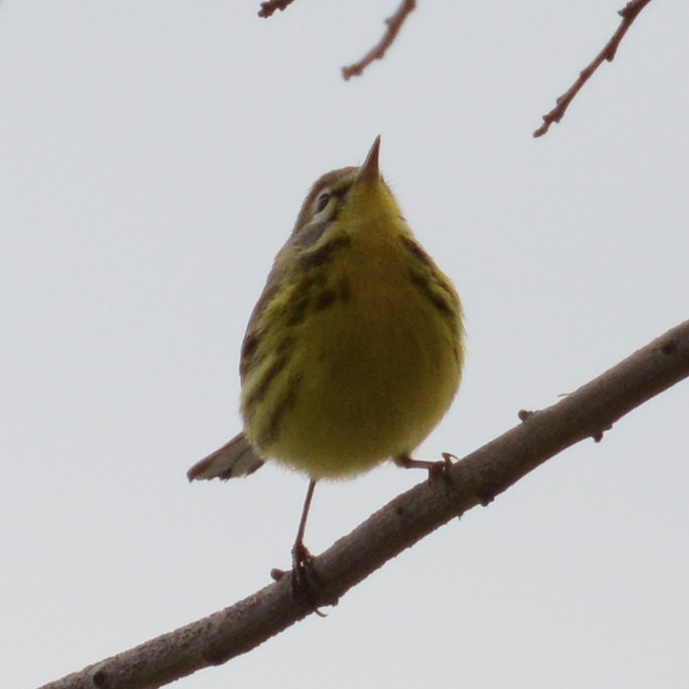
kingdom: Animalia
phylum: Chordata
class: Aves
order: Passeriformes
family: Parulidae
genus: Setophaga
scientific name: Setophaga discolor
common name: Prairie warbler
